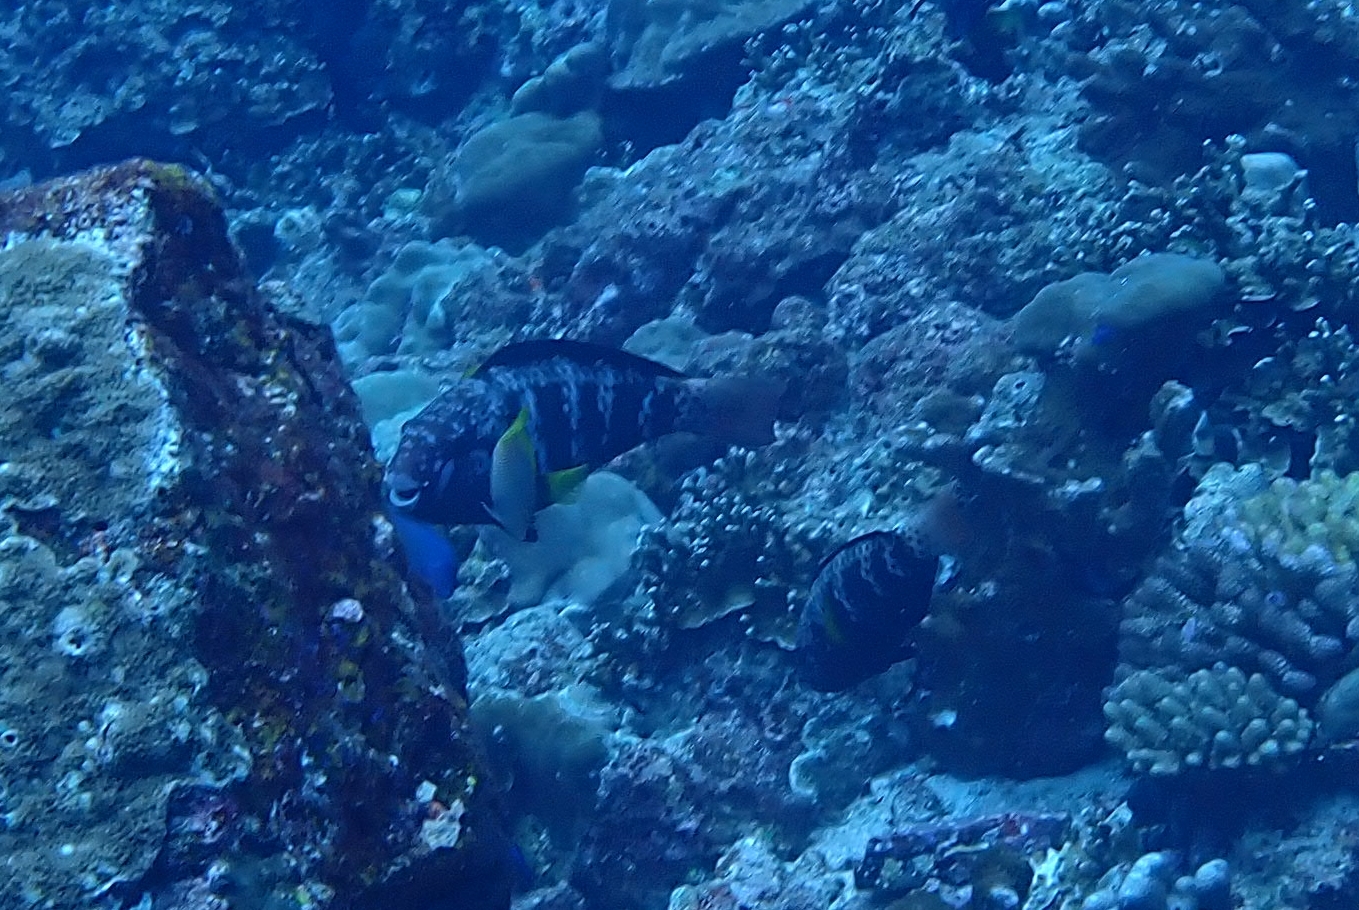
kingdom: Animalia
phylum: Chordata
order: Perciformes
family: Scaridae
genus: Chlorurus
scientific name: Chlorurus capistratoides
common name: Pink-margined parrotfish
